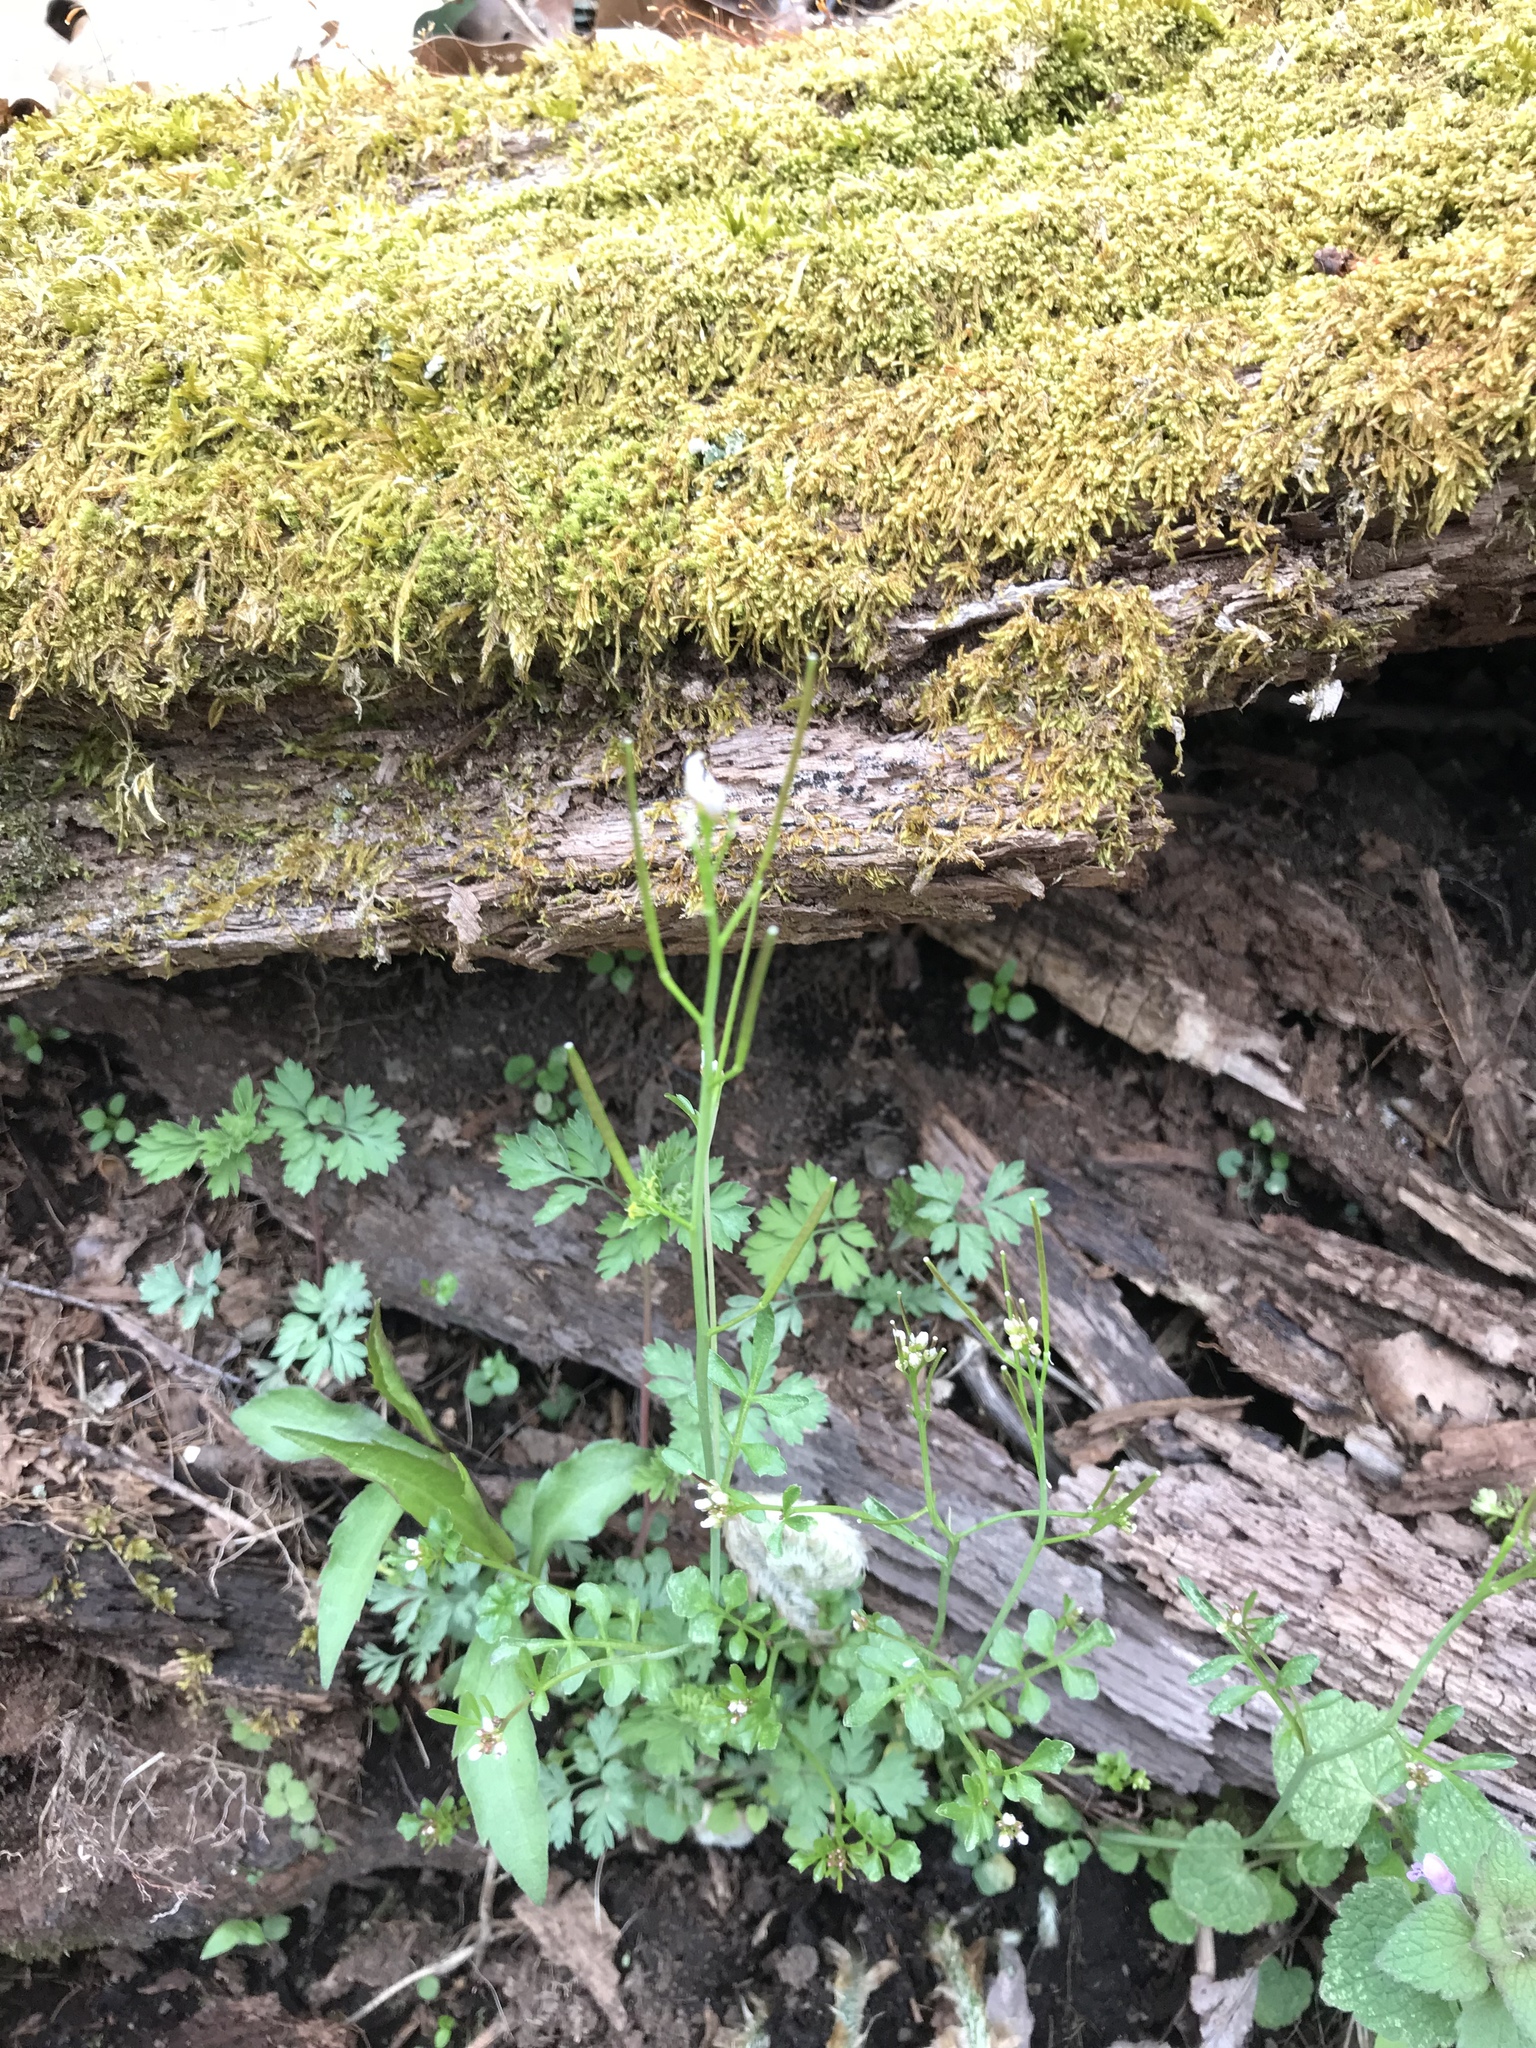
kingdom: Plantae
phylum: Tracheophyta
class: Magnoliopsida
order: Brassicales
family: Brassicaceae
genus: Cardamine
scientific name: Cardamine hirsuta
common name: Hairy bittercress
